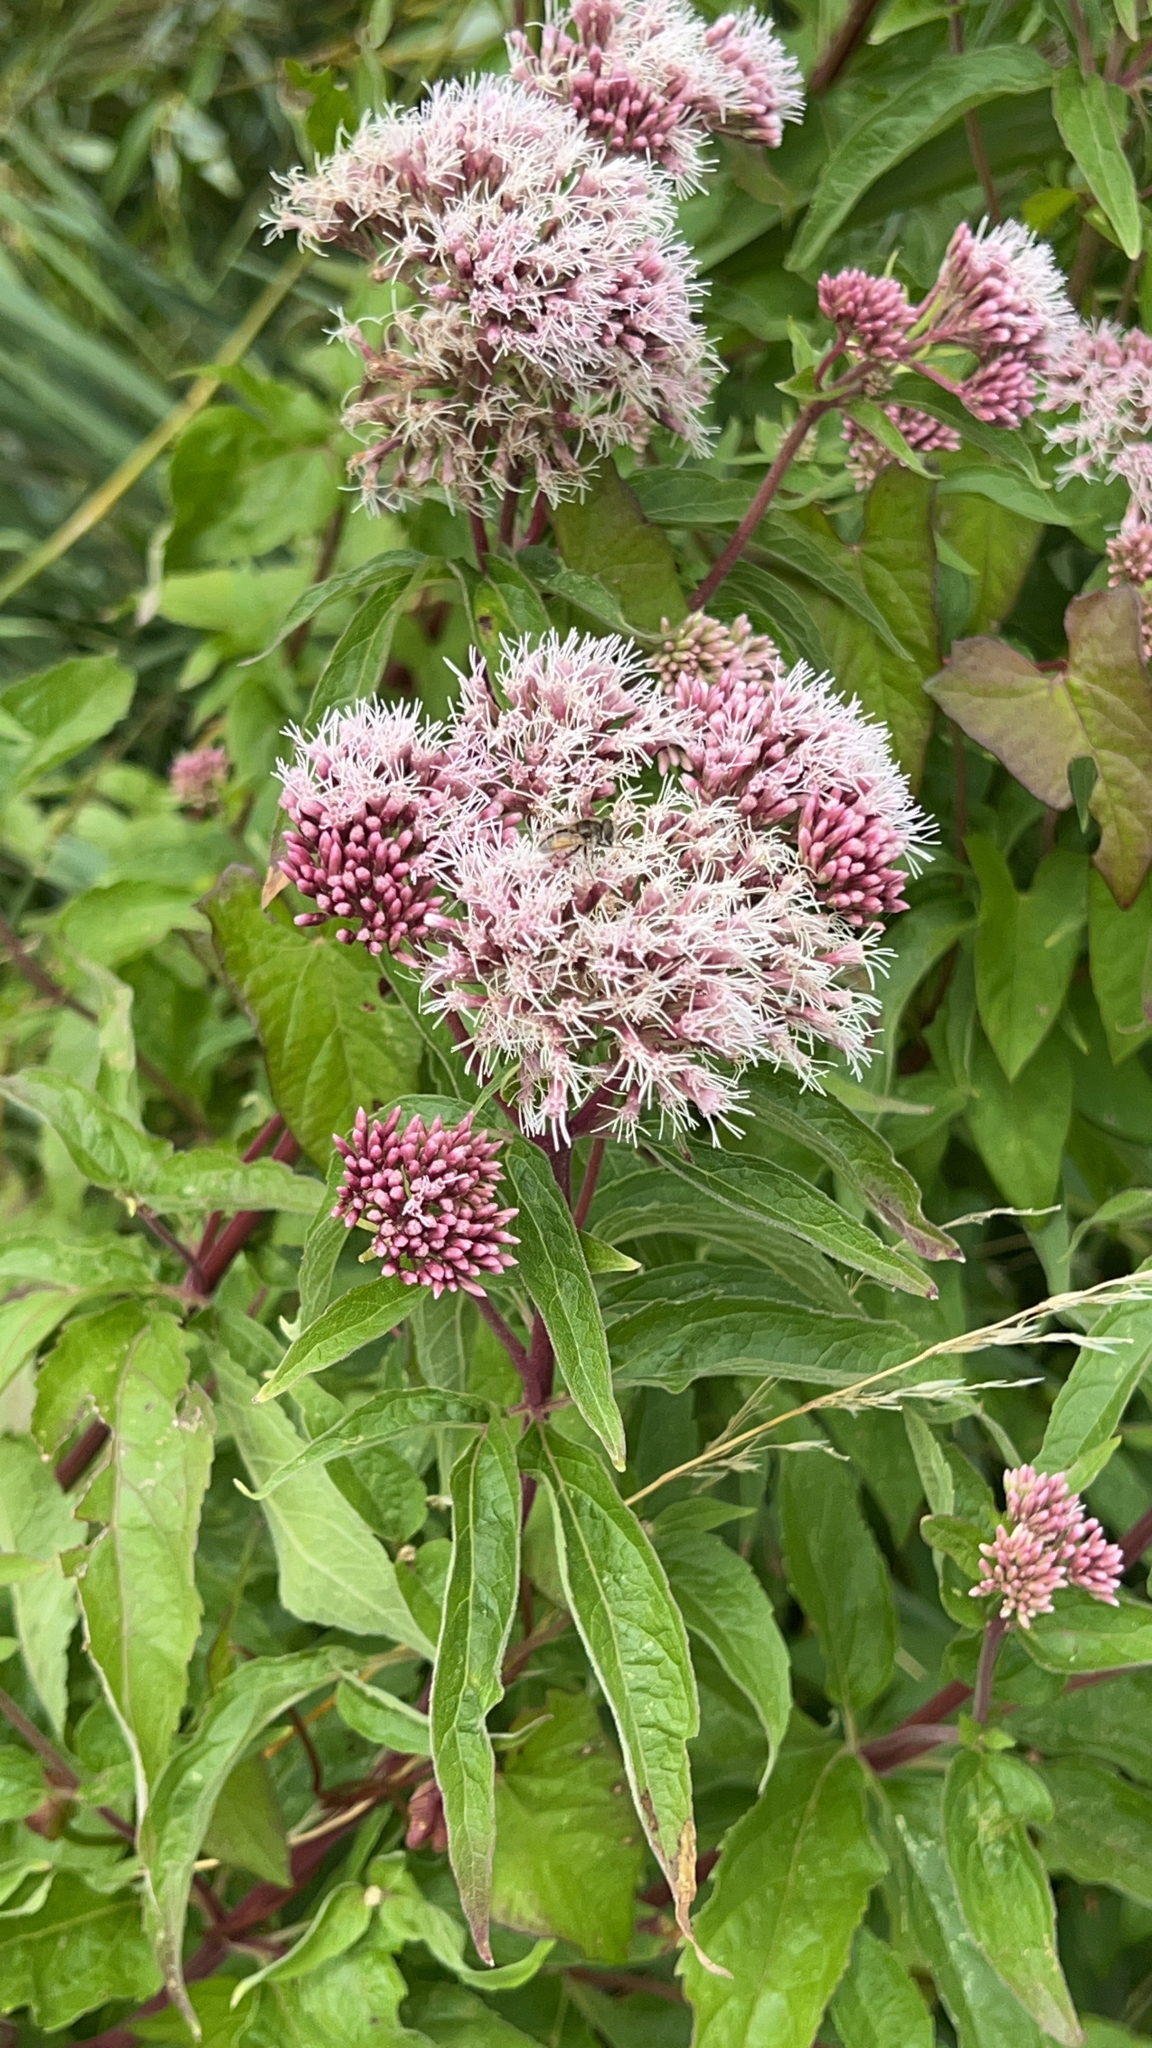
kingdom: Plantae
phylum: Tracheophyta
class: Magnoliopsida
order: Asterales
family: Asteraceae
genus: Eupatorium
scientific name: Eupatorium cannabinum
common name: Hemp-agrimony
